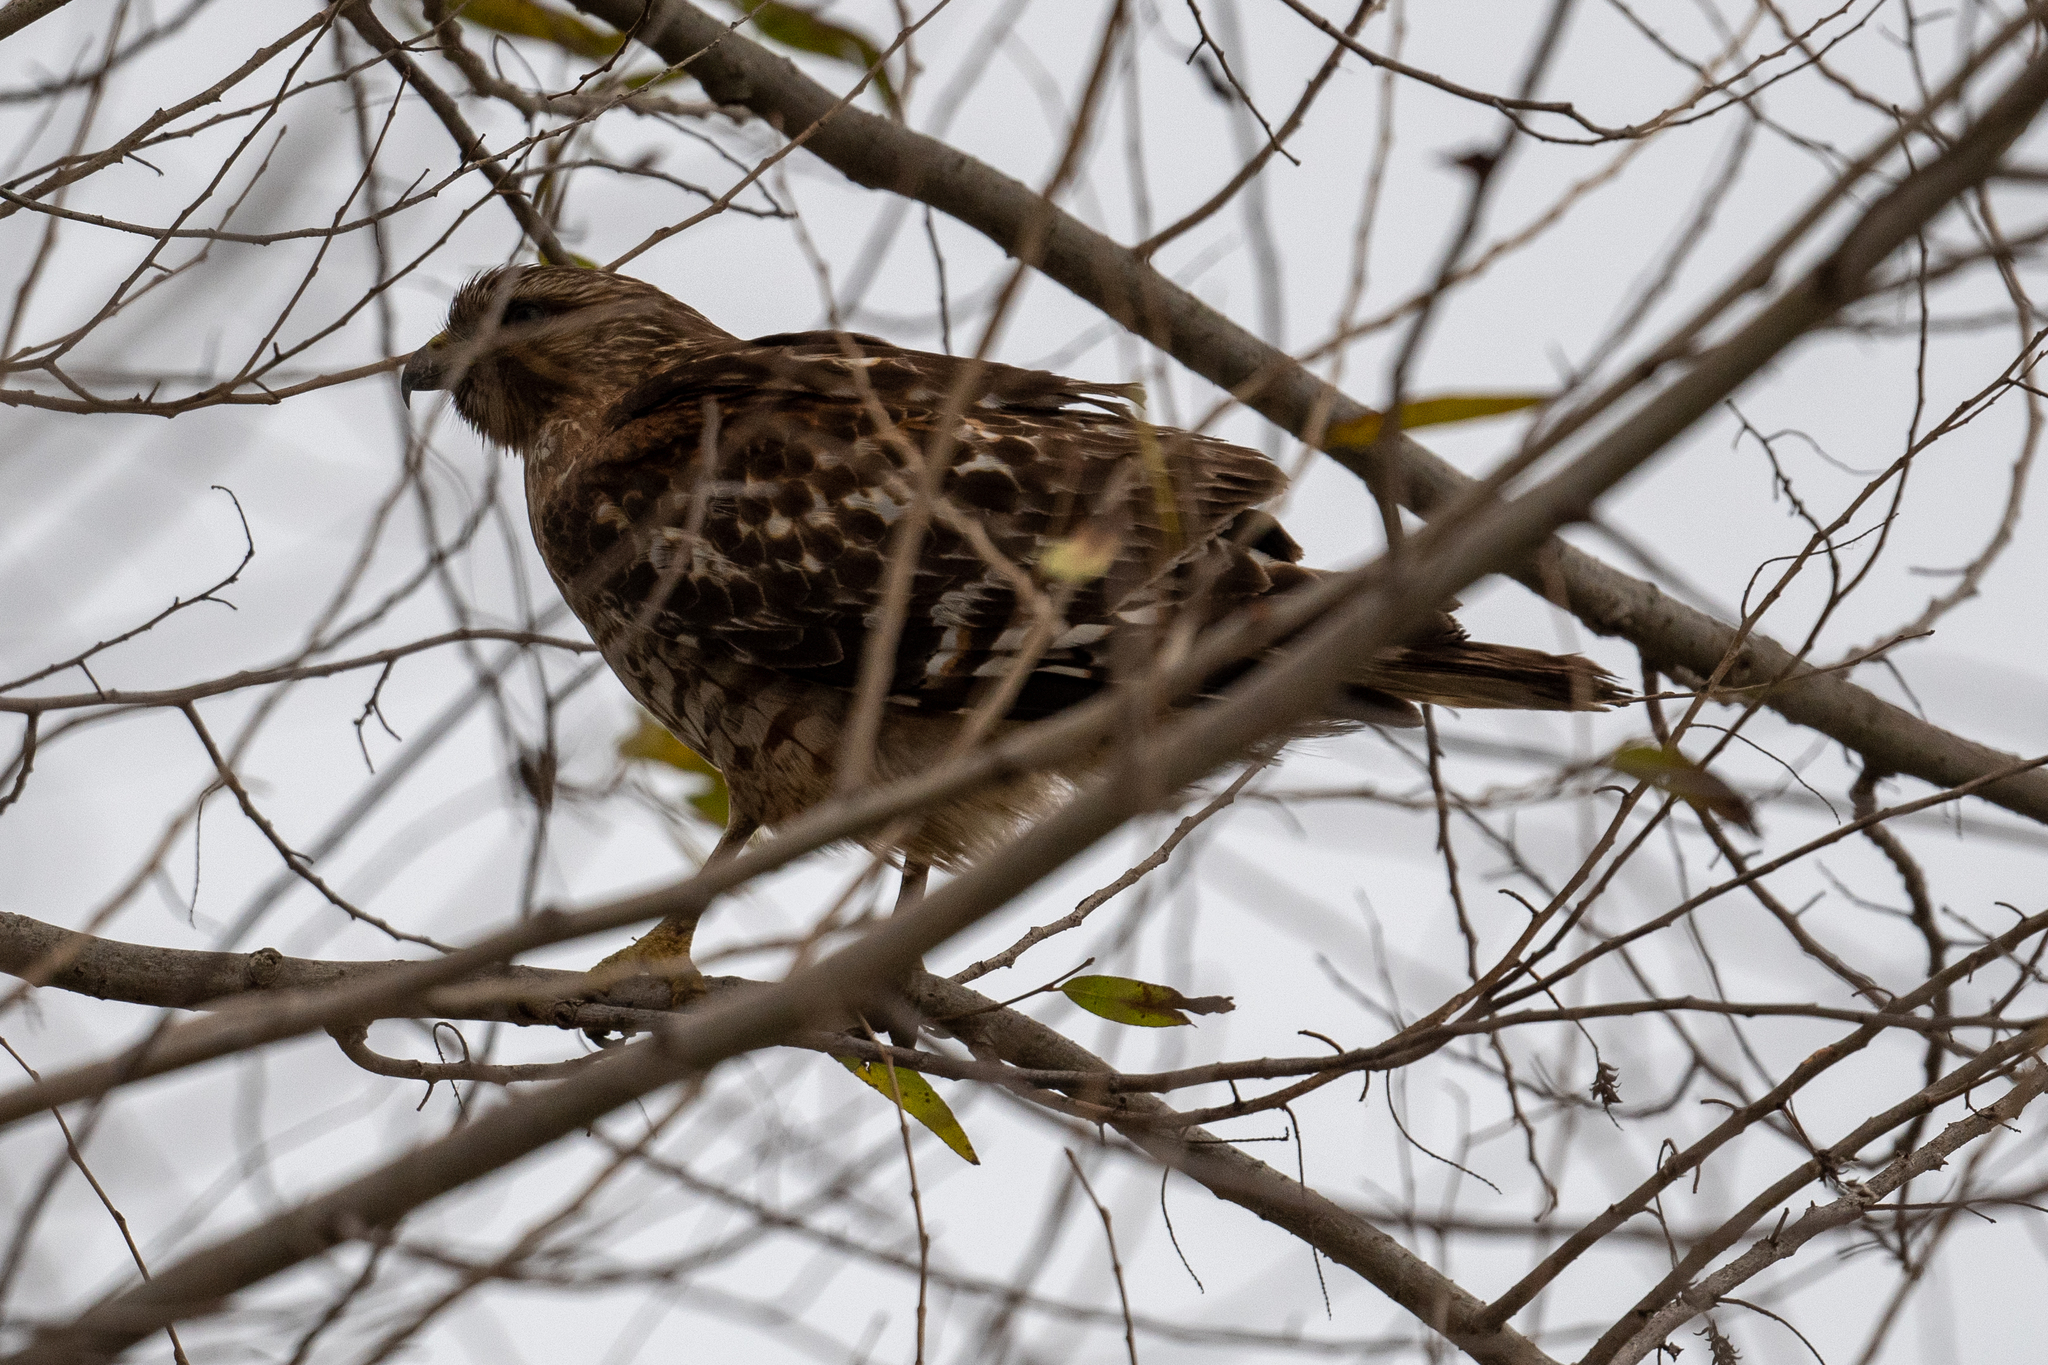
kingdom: Animalia
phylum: Chordata
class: Aves
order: Accipitriformes
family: Accipitridae
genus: Buteo
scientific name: Buteo lineatus
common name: Red-shouldered hawk
